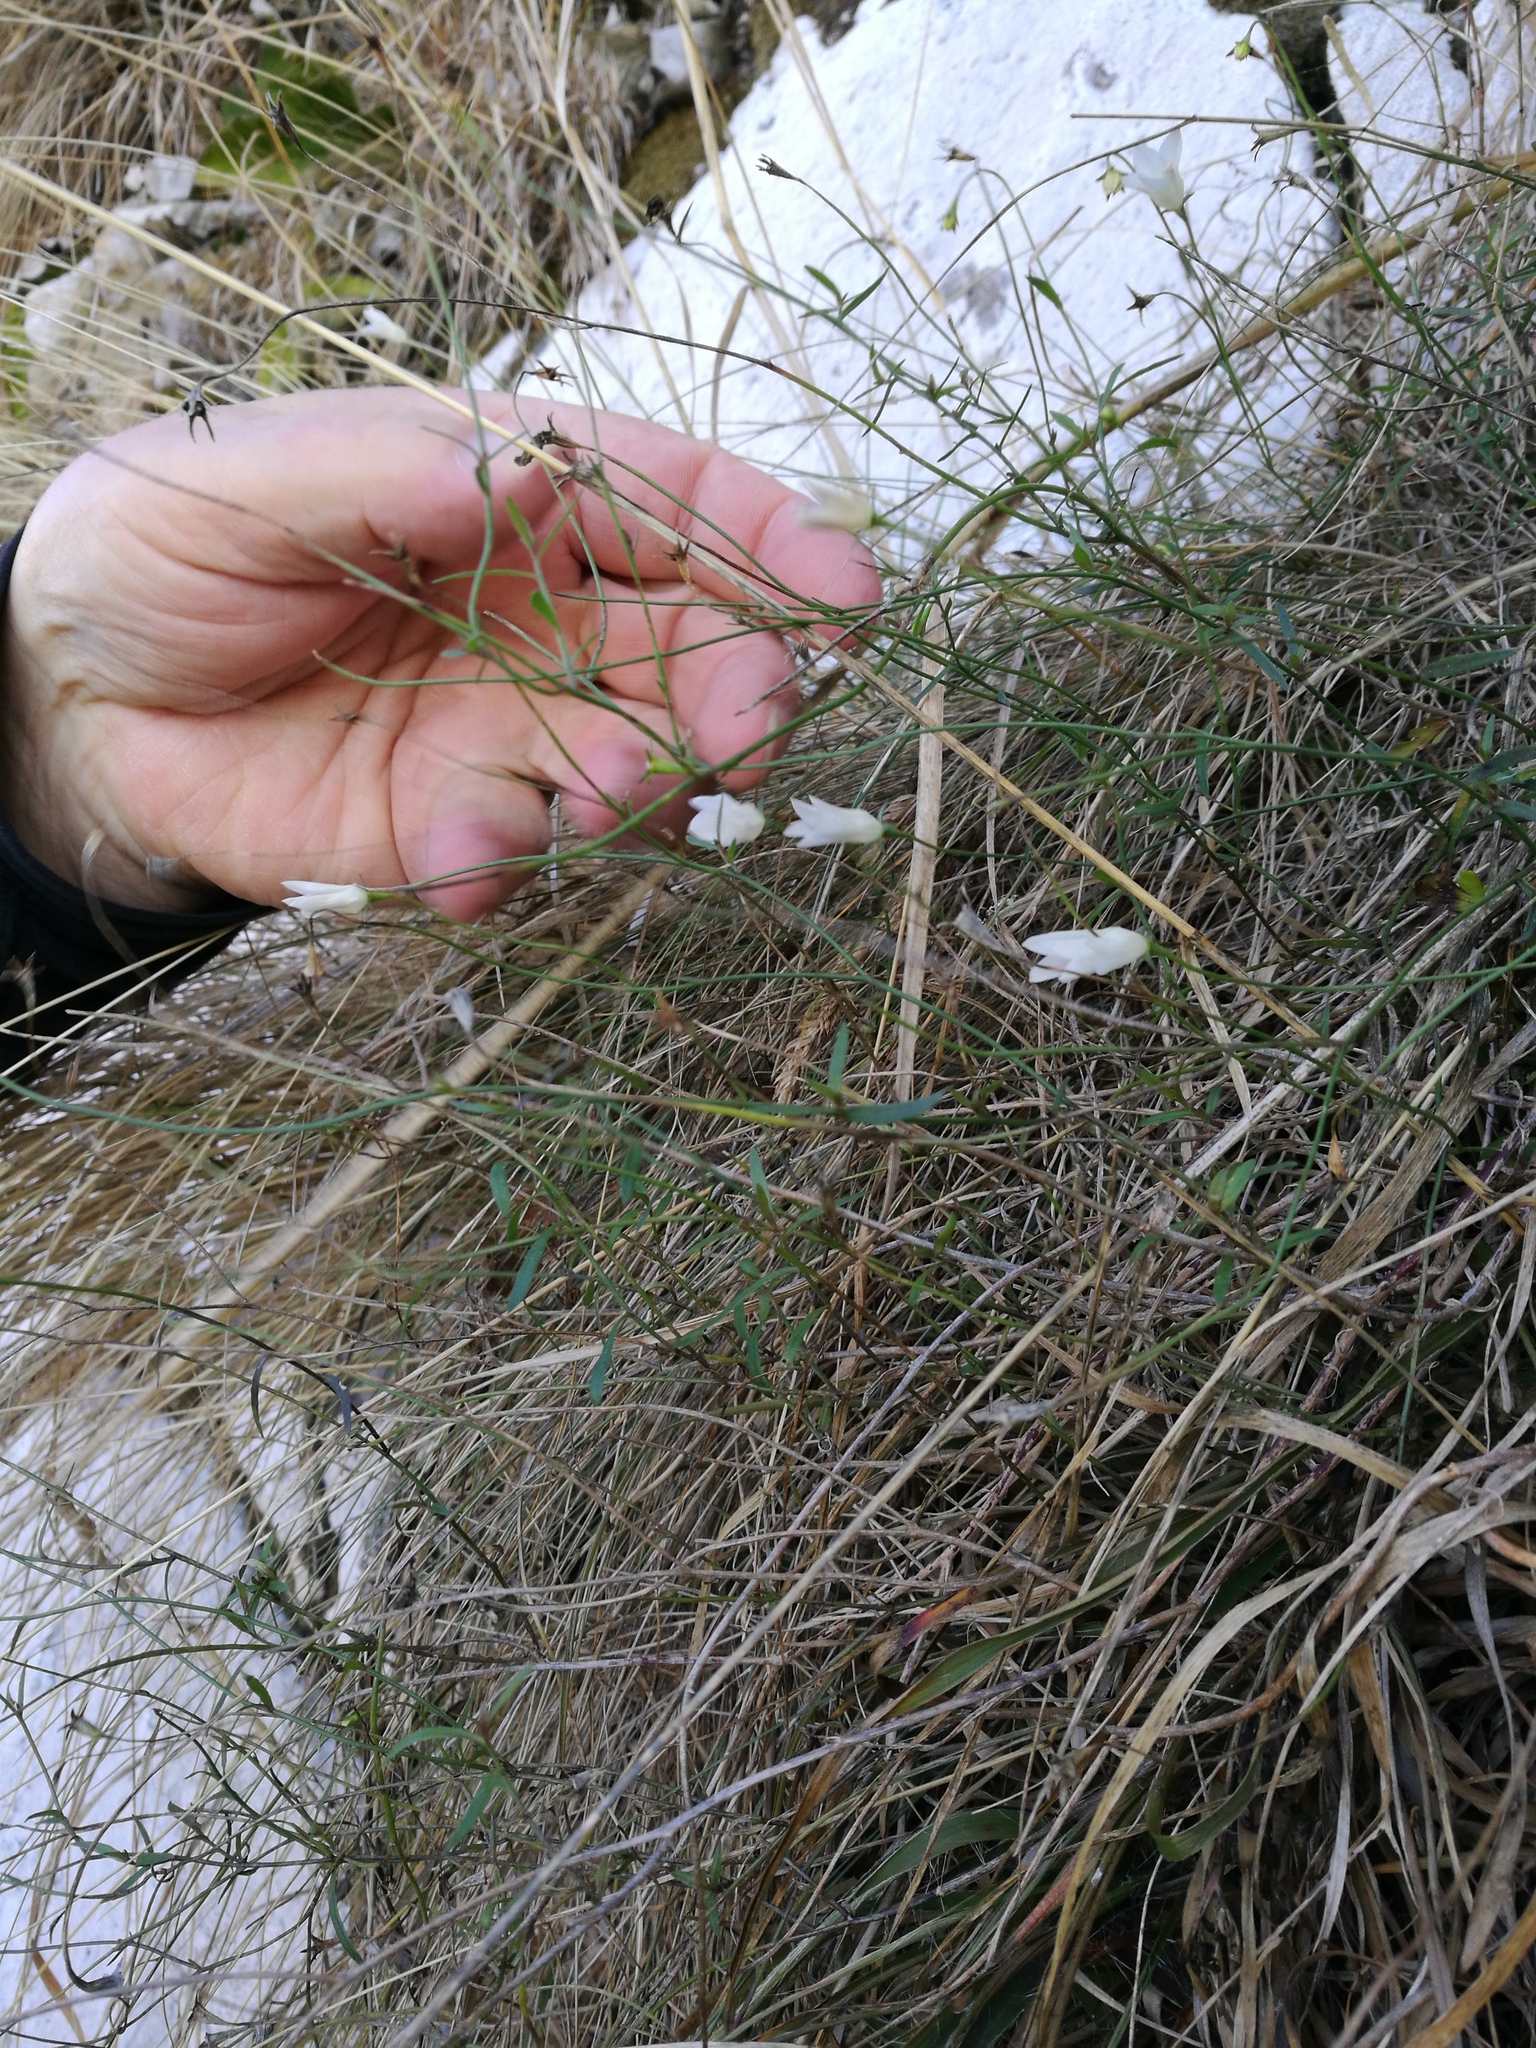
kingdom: Plantae
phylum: Tracheophyta
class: Magnoliopsida
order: Asterales
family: Campanulaceae
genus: Wahlenbergia
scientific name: Wahlenbergia gracilis
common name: Harebell
